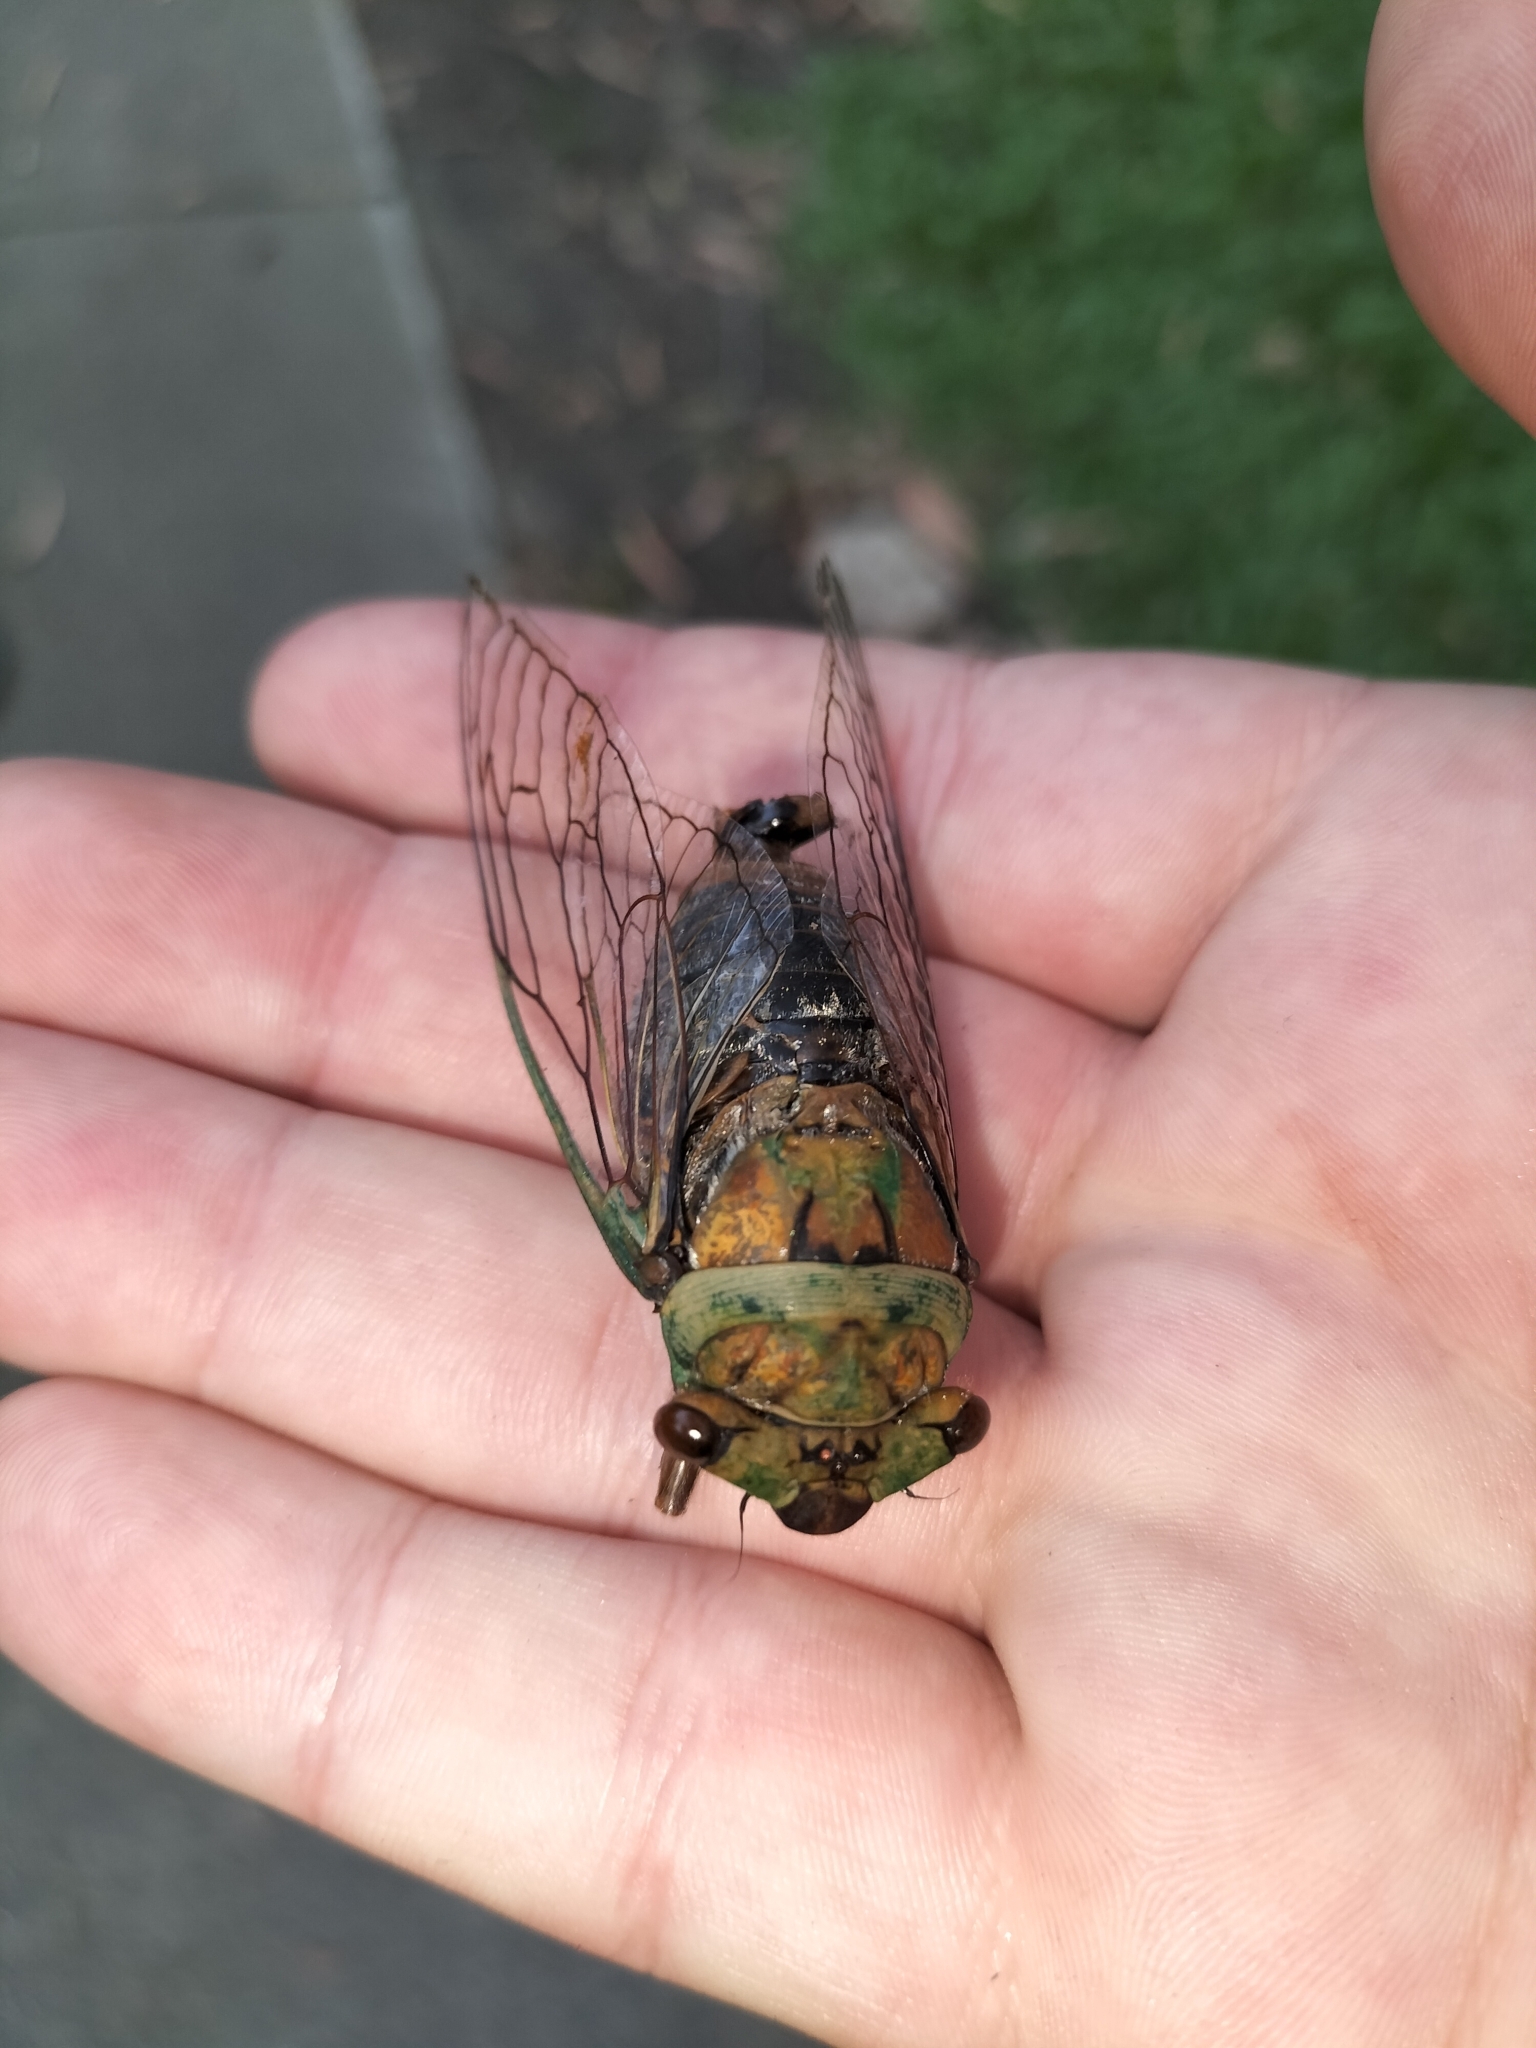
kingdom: Animalia
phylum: Arthropoda
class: Insecta
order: Hemiptera
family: Cicadidae
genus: Macrotristria
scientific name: Macrotristria sylvara
